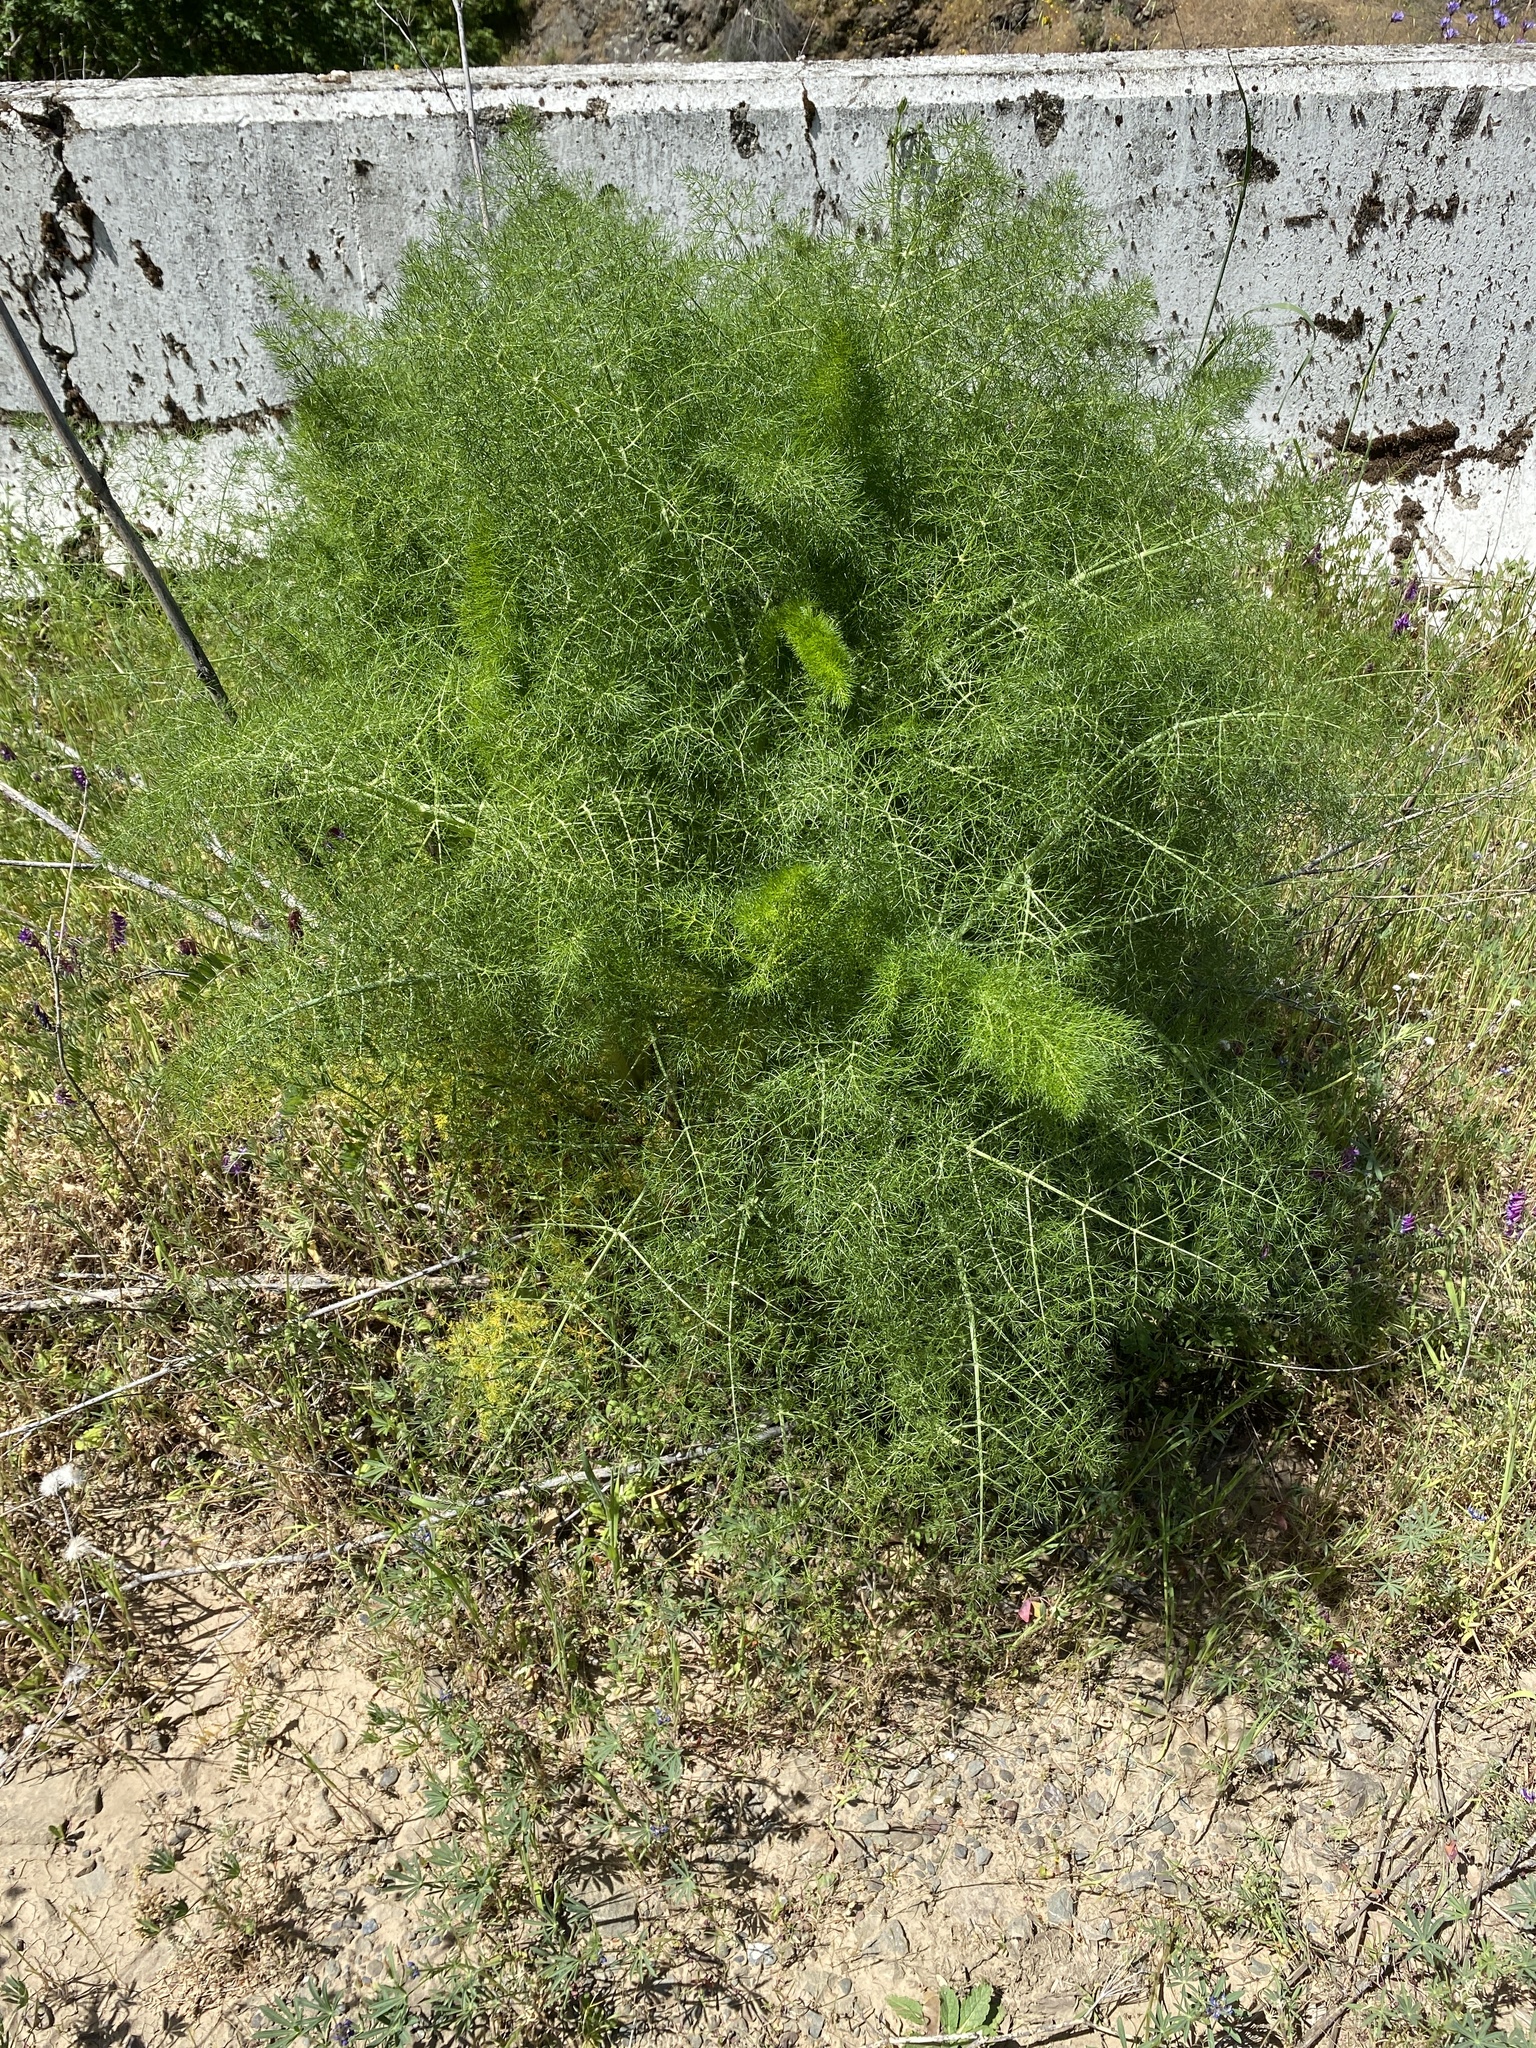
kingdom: Plantae
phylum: Tracheophyta
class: Magnoliopsida
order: Apiales
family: Apiaceae
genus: Foeniculum
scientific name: Foeniculum vulgare
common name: Fennel
